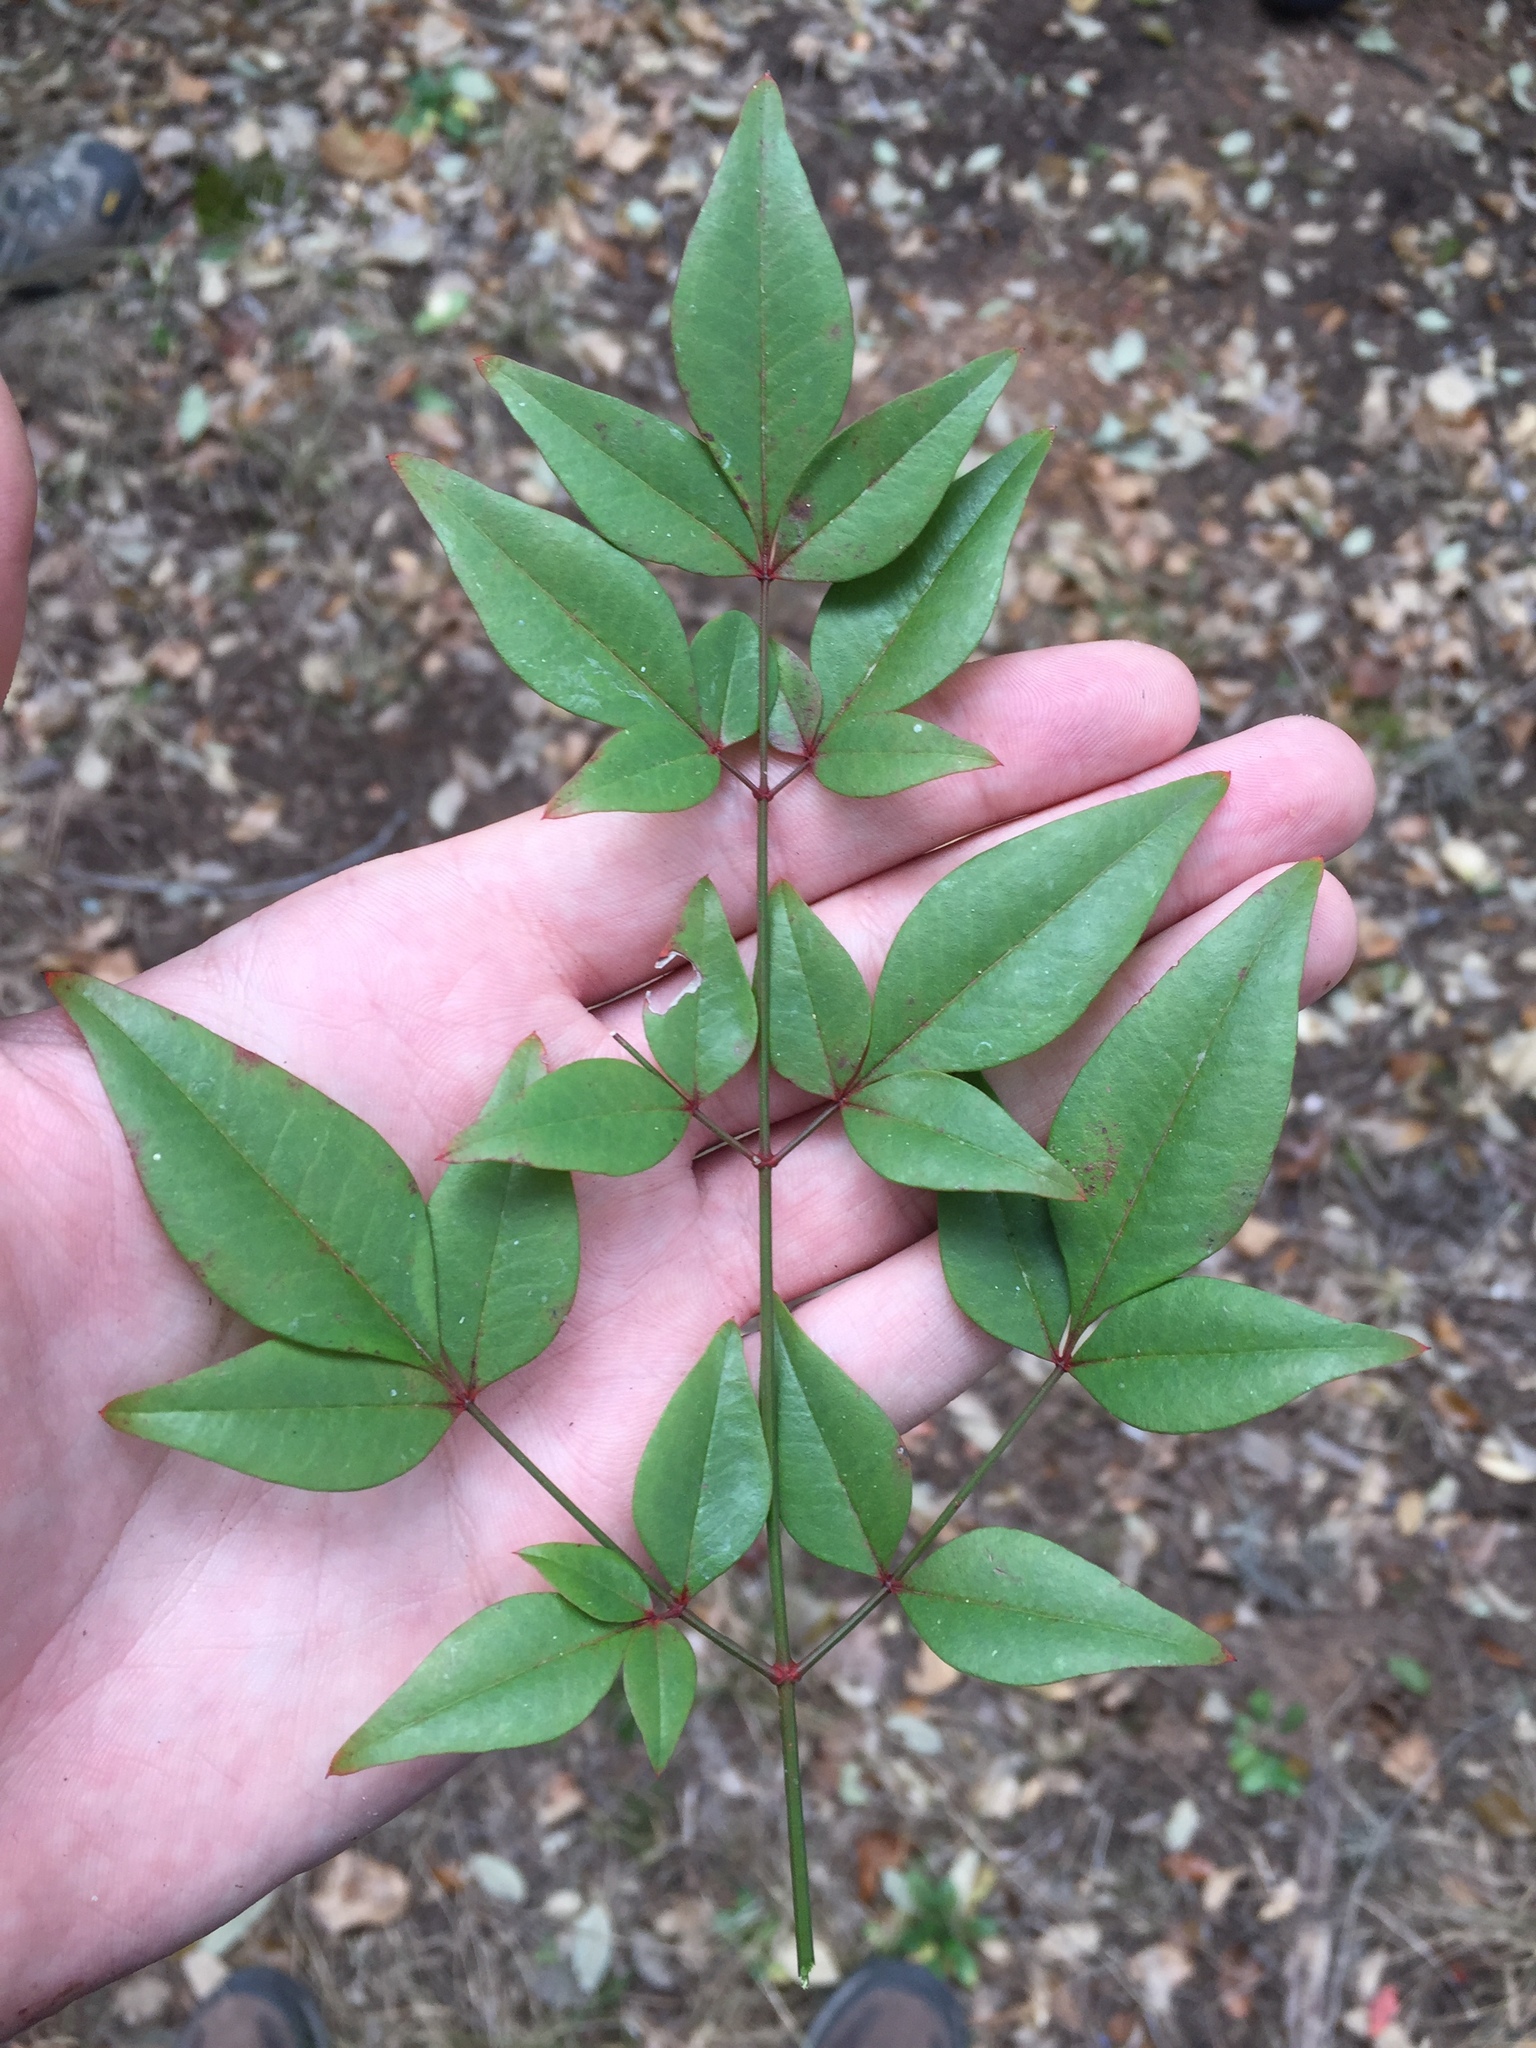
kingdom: Plantae
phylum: Tracheophyta
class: Magnoliopsida
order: Ranunculales
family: Berberidaceae
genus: Nandina
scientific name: Nandina domestica
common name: Sacred bamboo
